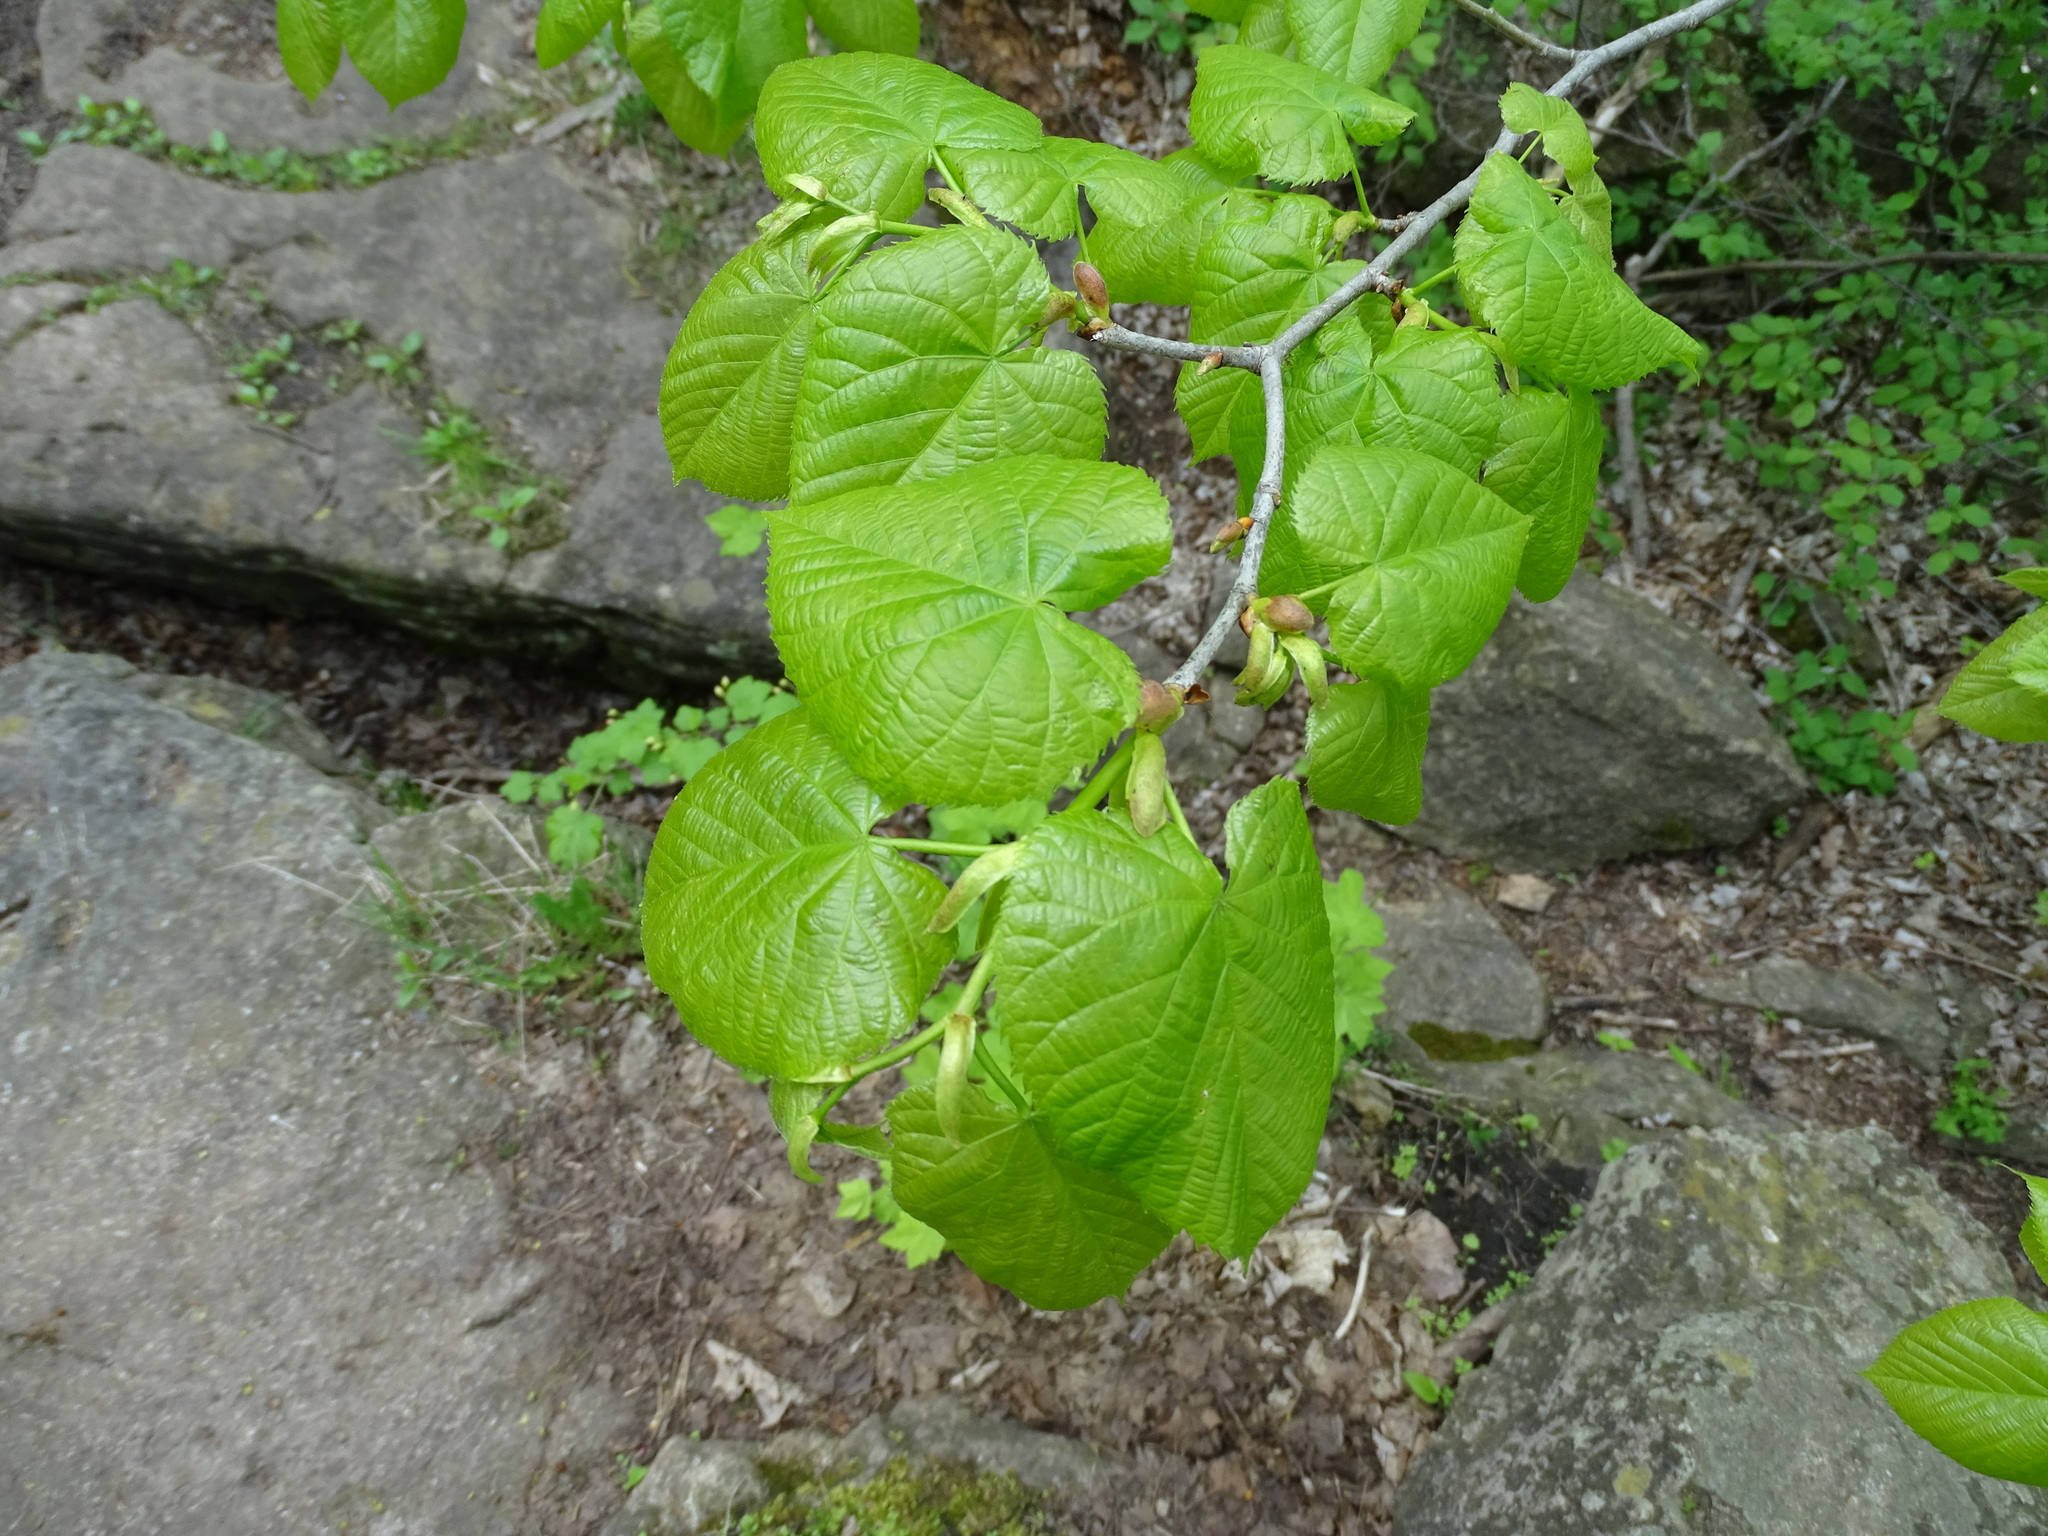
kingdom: Plantae
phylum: Tracheophyta
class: Magnoliopsida
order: Malvales
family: Malvaceae
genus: Tilia
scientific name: Tilia americana
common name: Basswood
